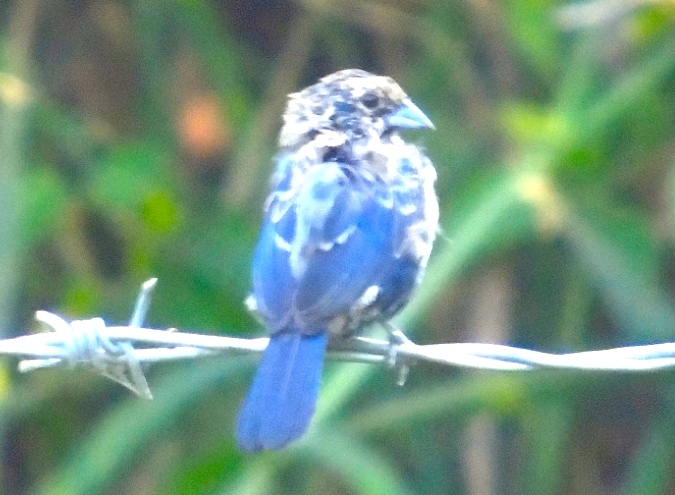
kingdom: Animalia
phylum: Chordata
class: Aves
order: Passeriformes
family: Thraupidae
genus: Volatinia
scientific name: Volatinia jacarina
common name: Blue-black grassquit
